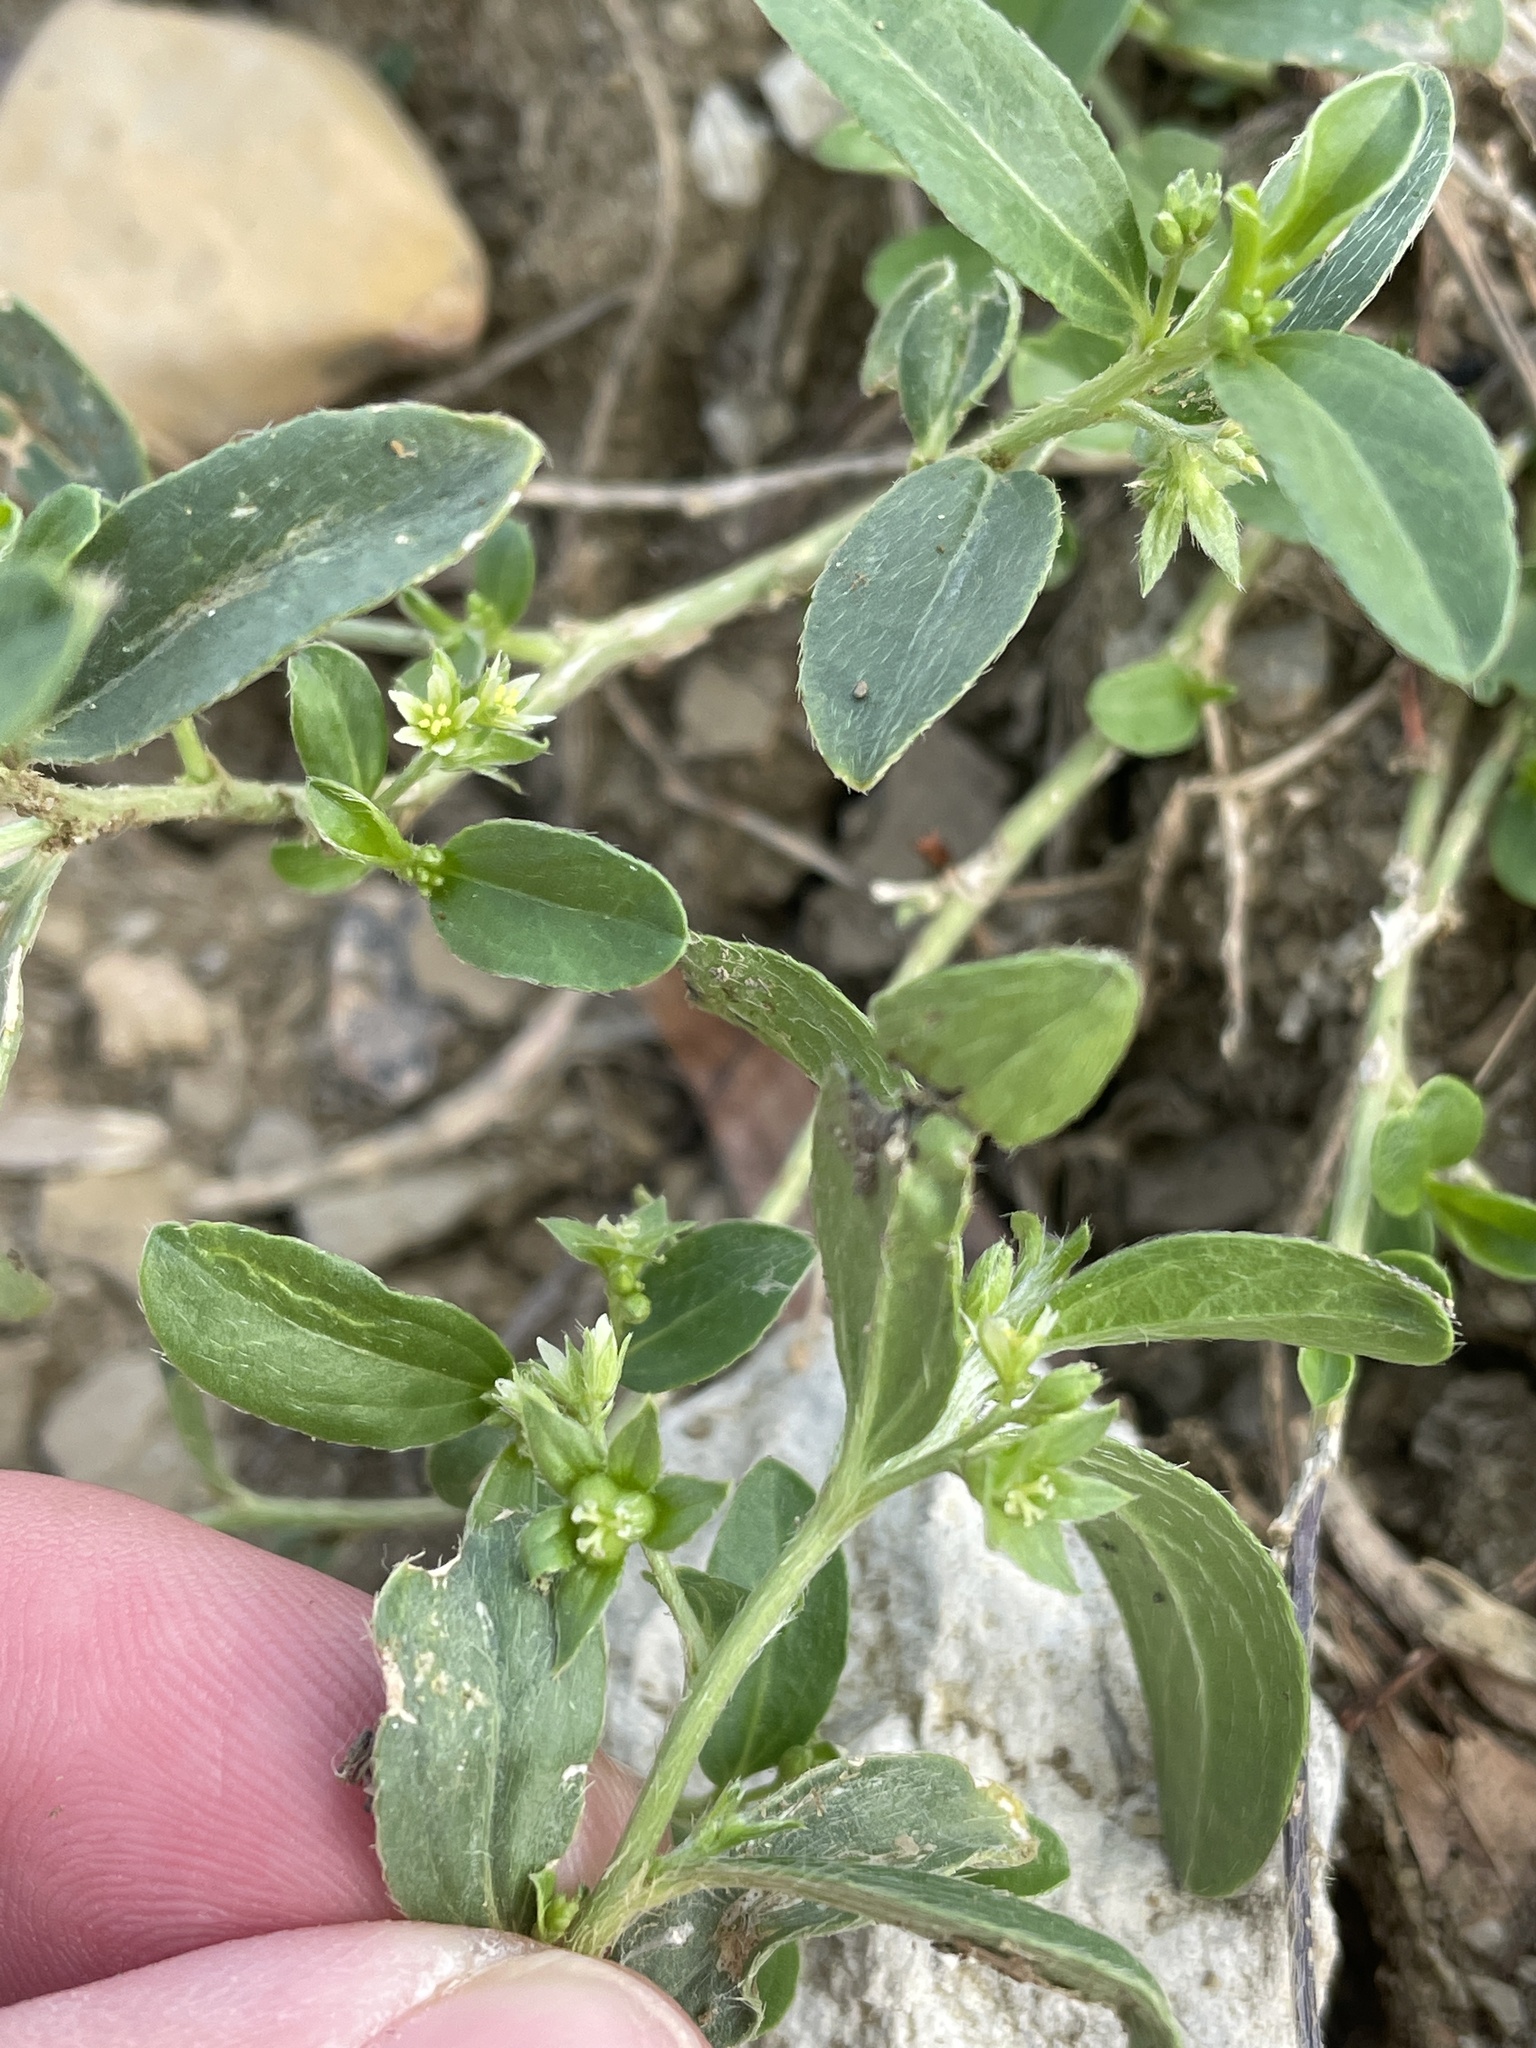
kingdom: Plantae
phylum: Tracheophyta
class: Magnoliopsida
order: Malpighiales
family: Euphorbiaceae
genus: Ditaxis
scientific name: Ditaxis humilis
